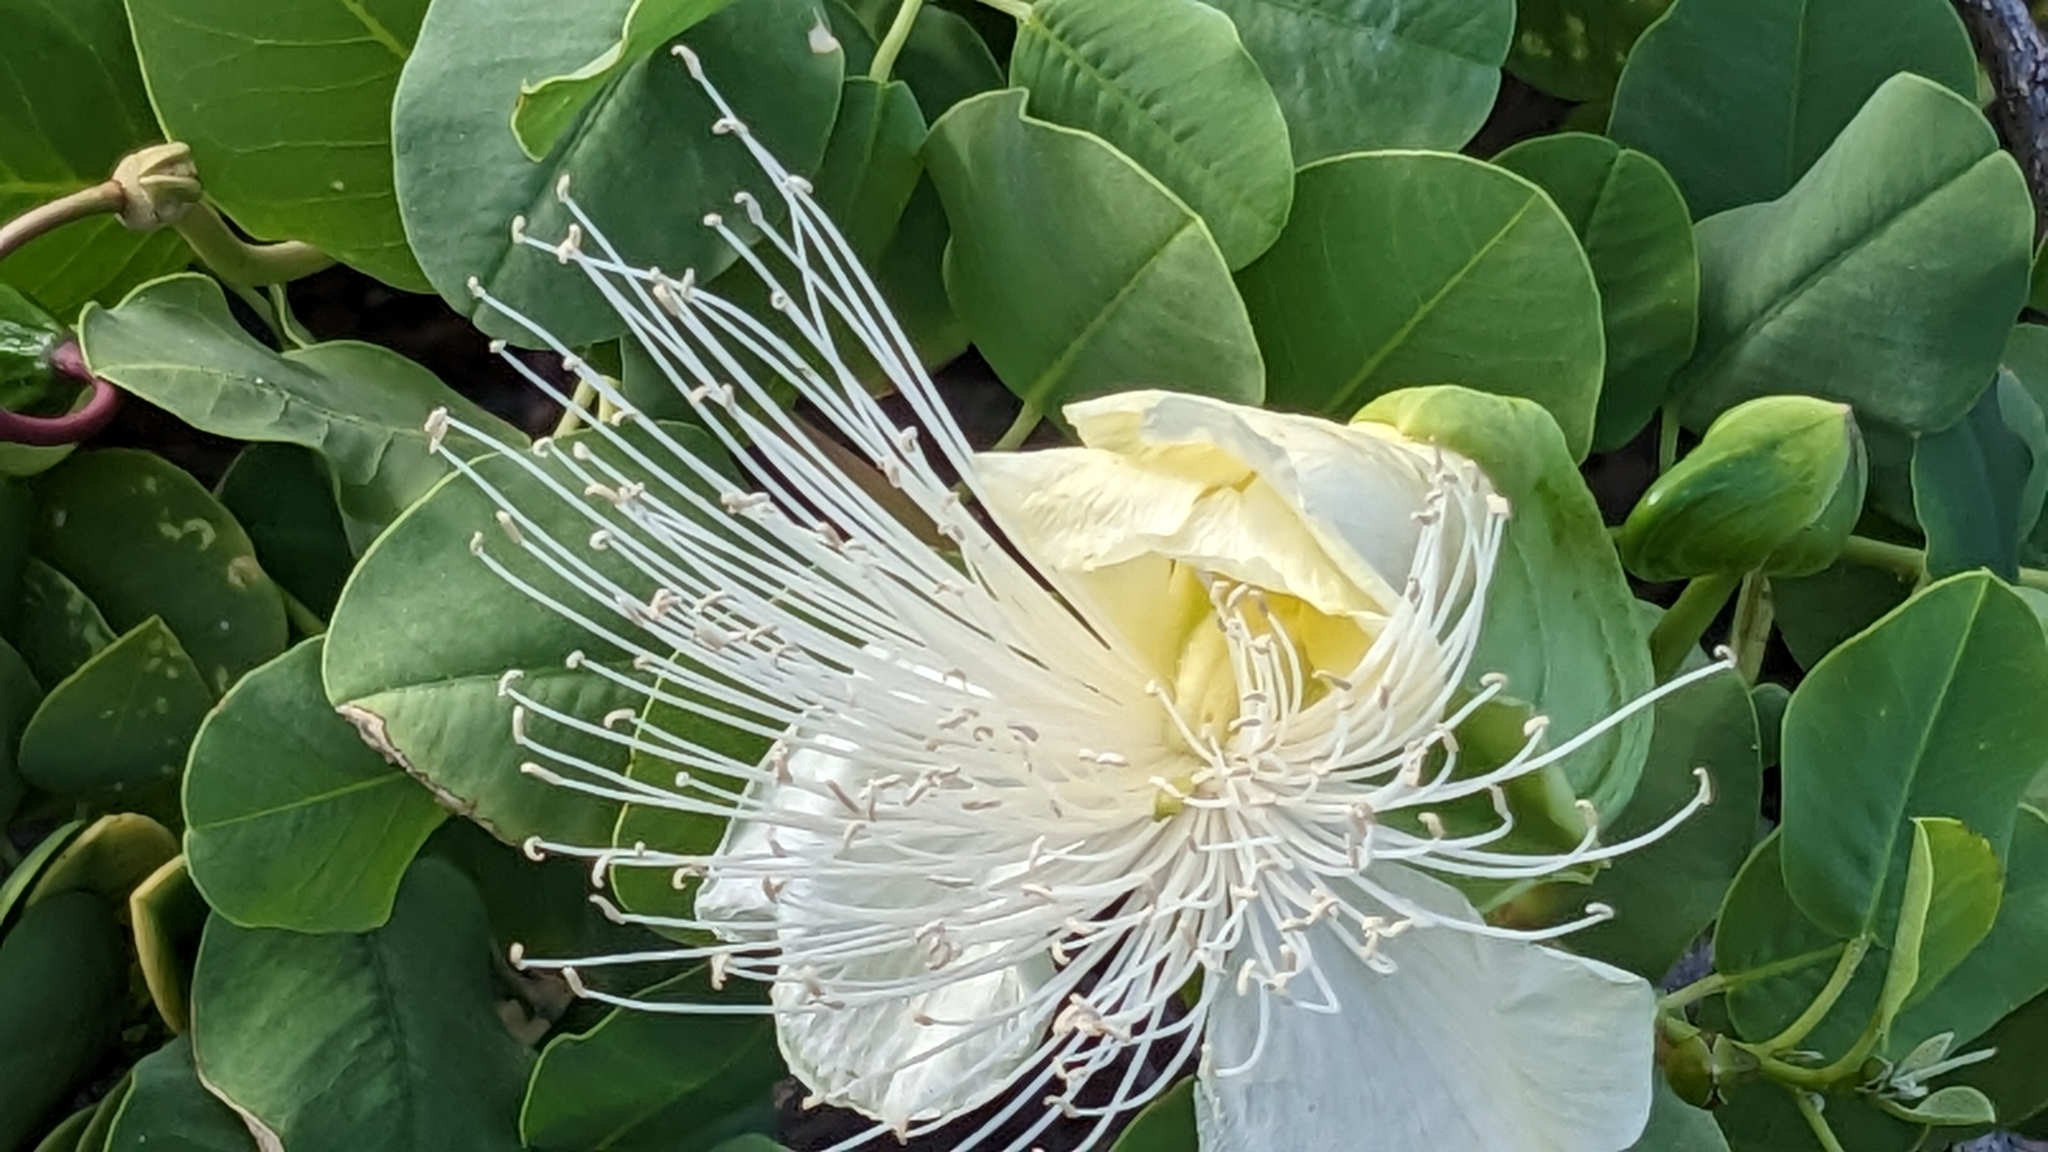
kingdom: Plantae
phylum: Tracheophyta
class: Magnoliopsida
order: Brassicales
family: Capparaceae
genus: Capparis
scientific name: Capparis spinosa
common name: Caper
